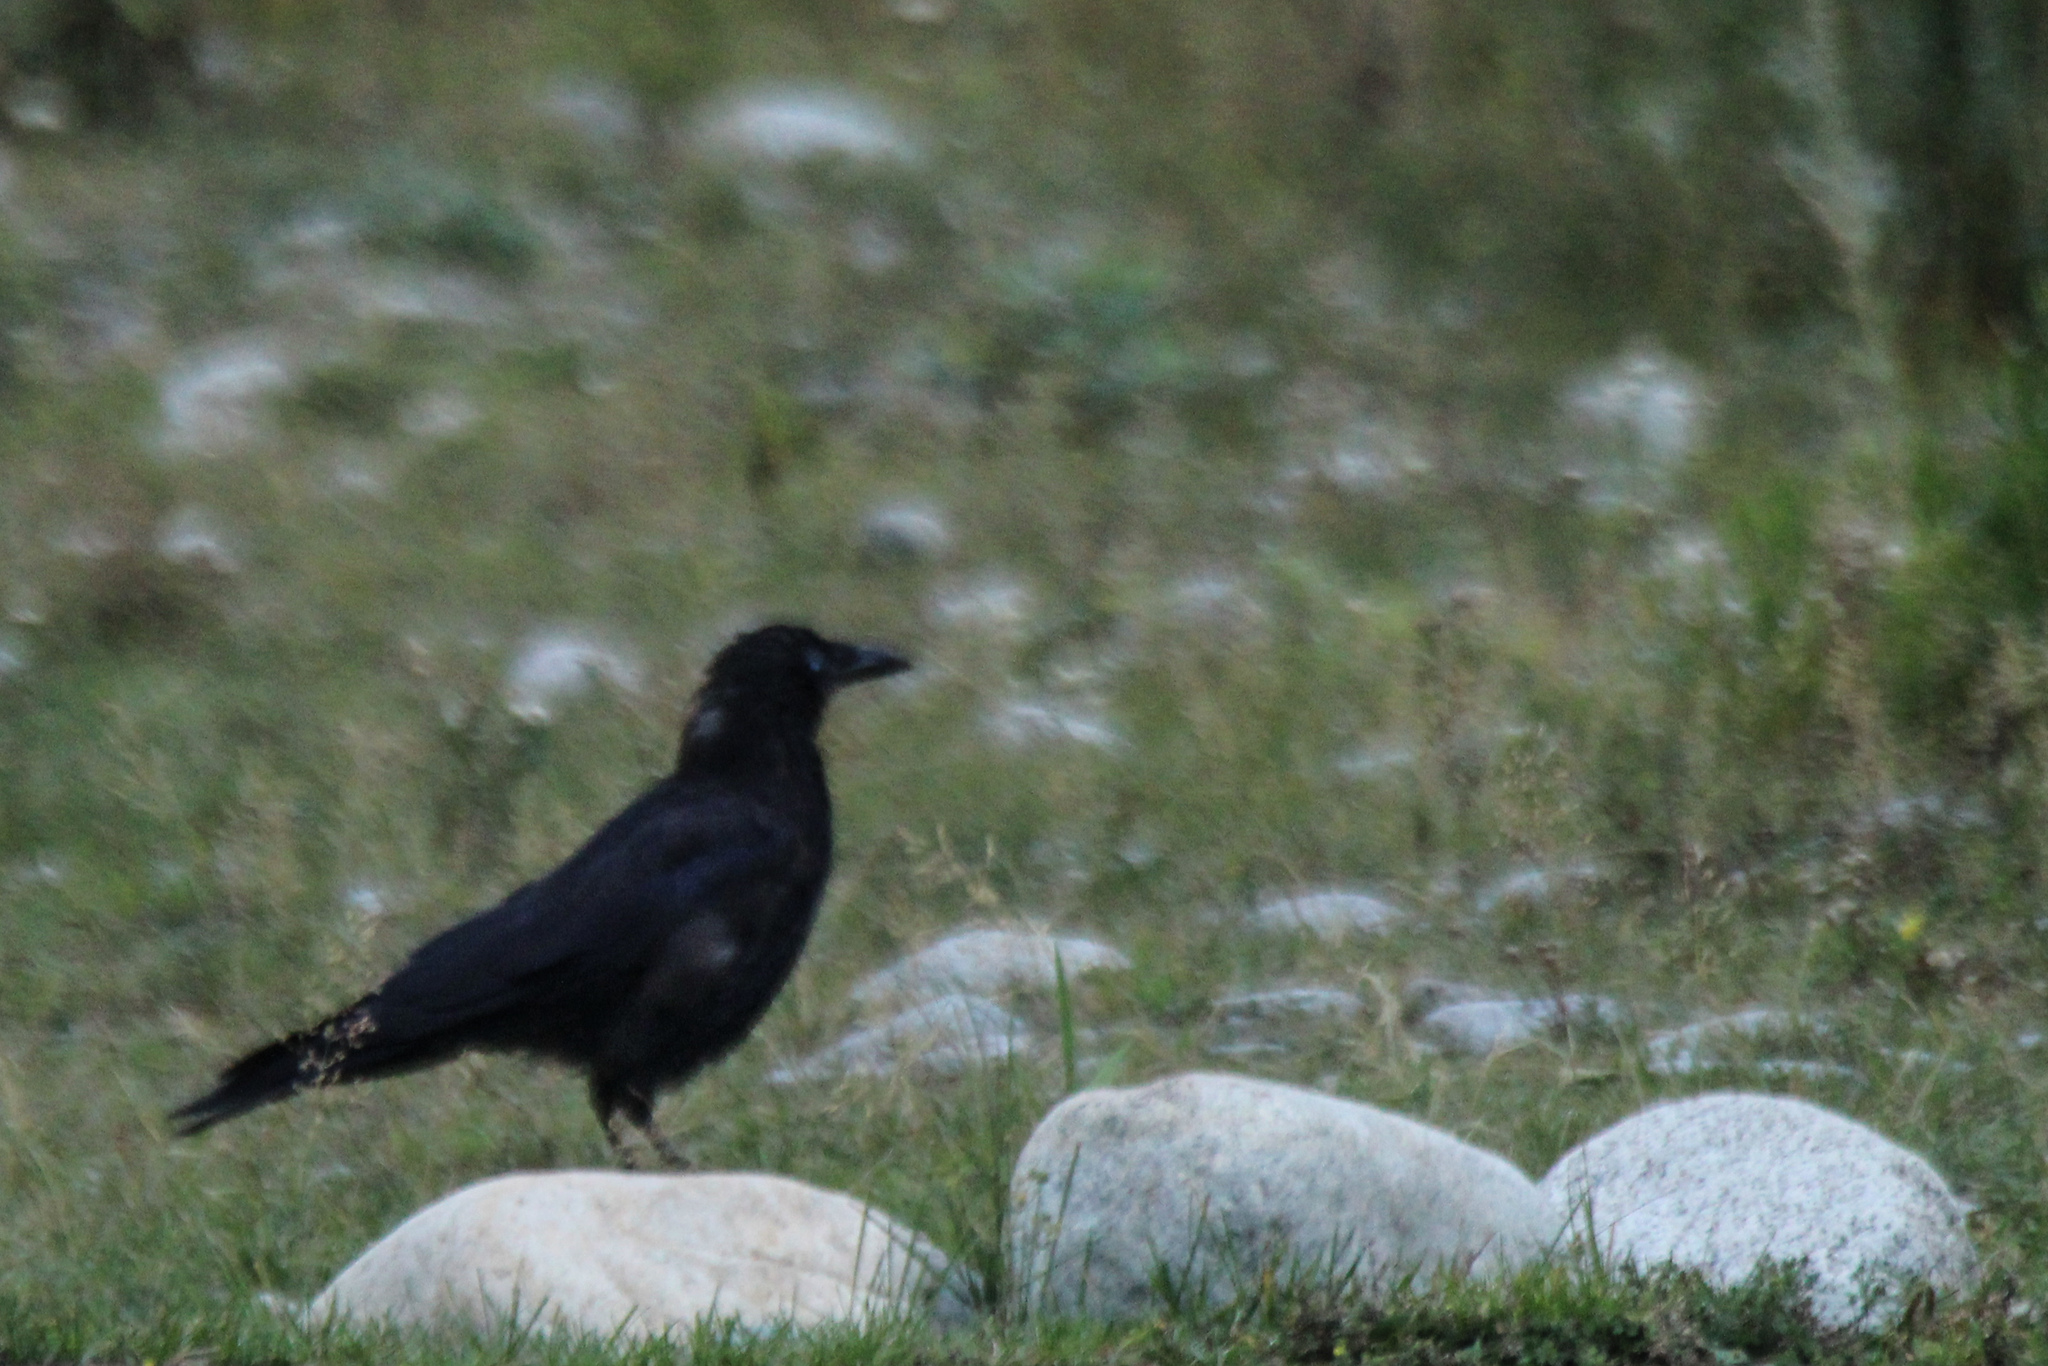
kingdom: Animalia
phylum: Chordata
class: Aves
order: Passeriformes
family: Corvidae
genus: Corvus
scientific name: Corvus corone
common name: Carrion crow
